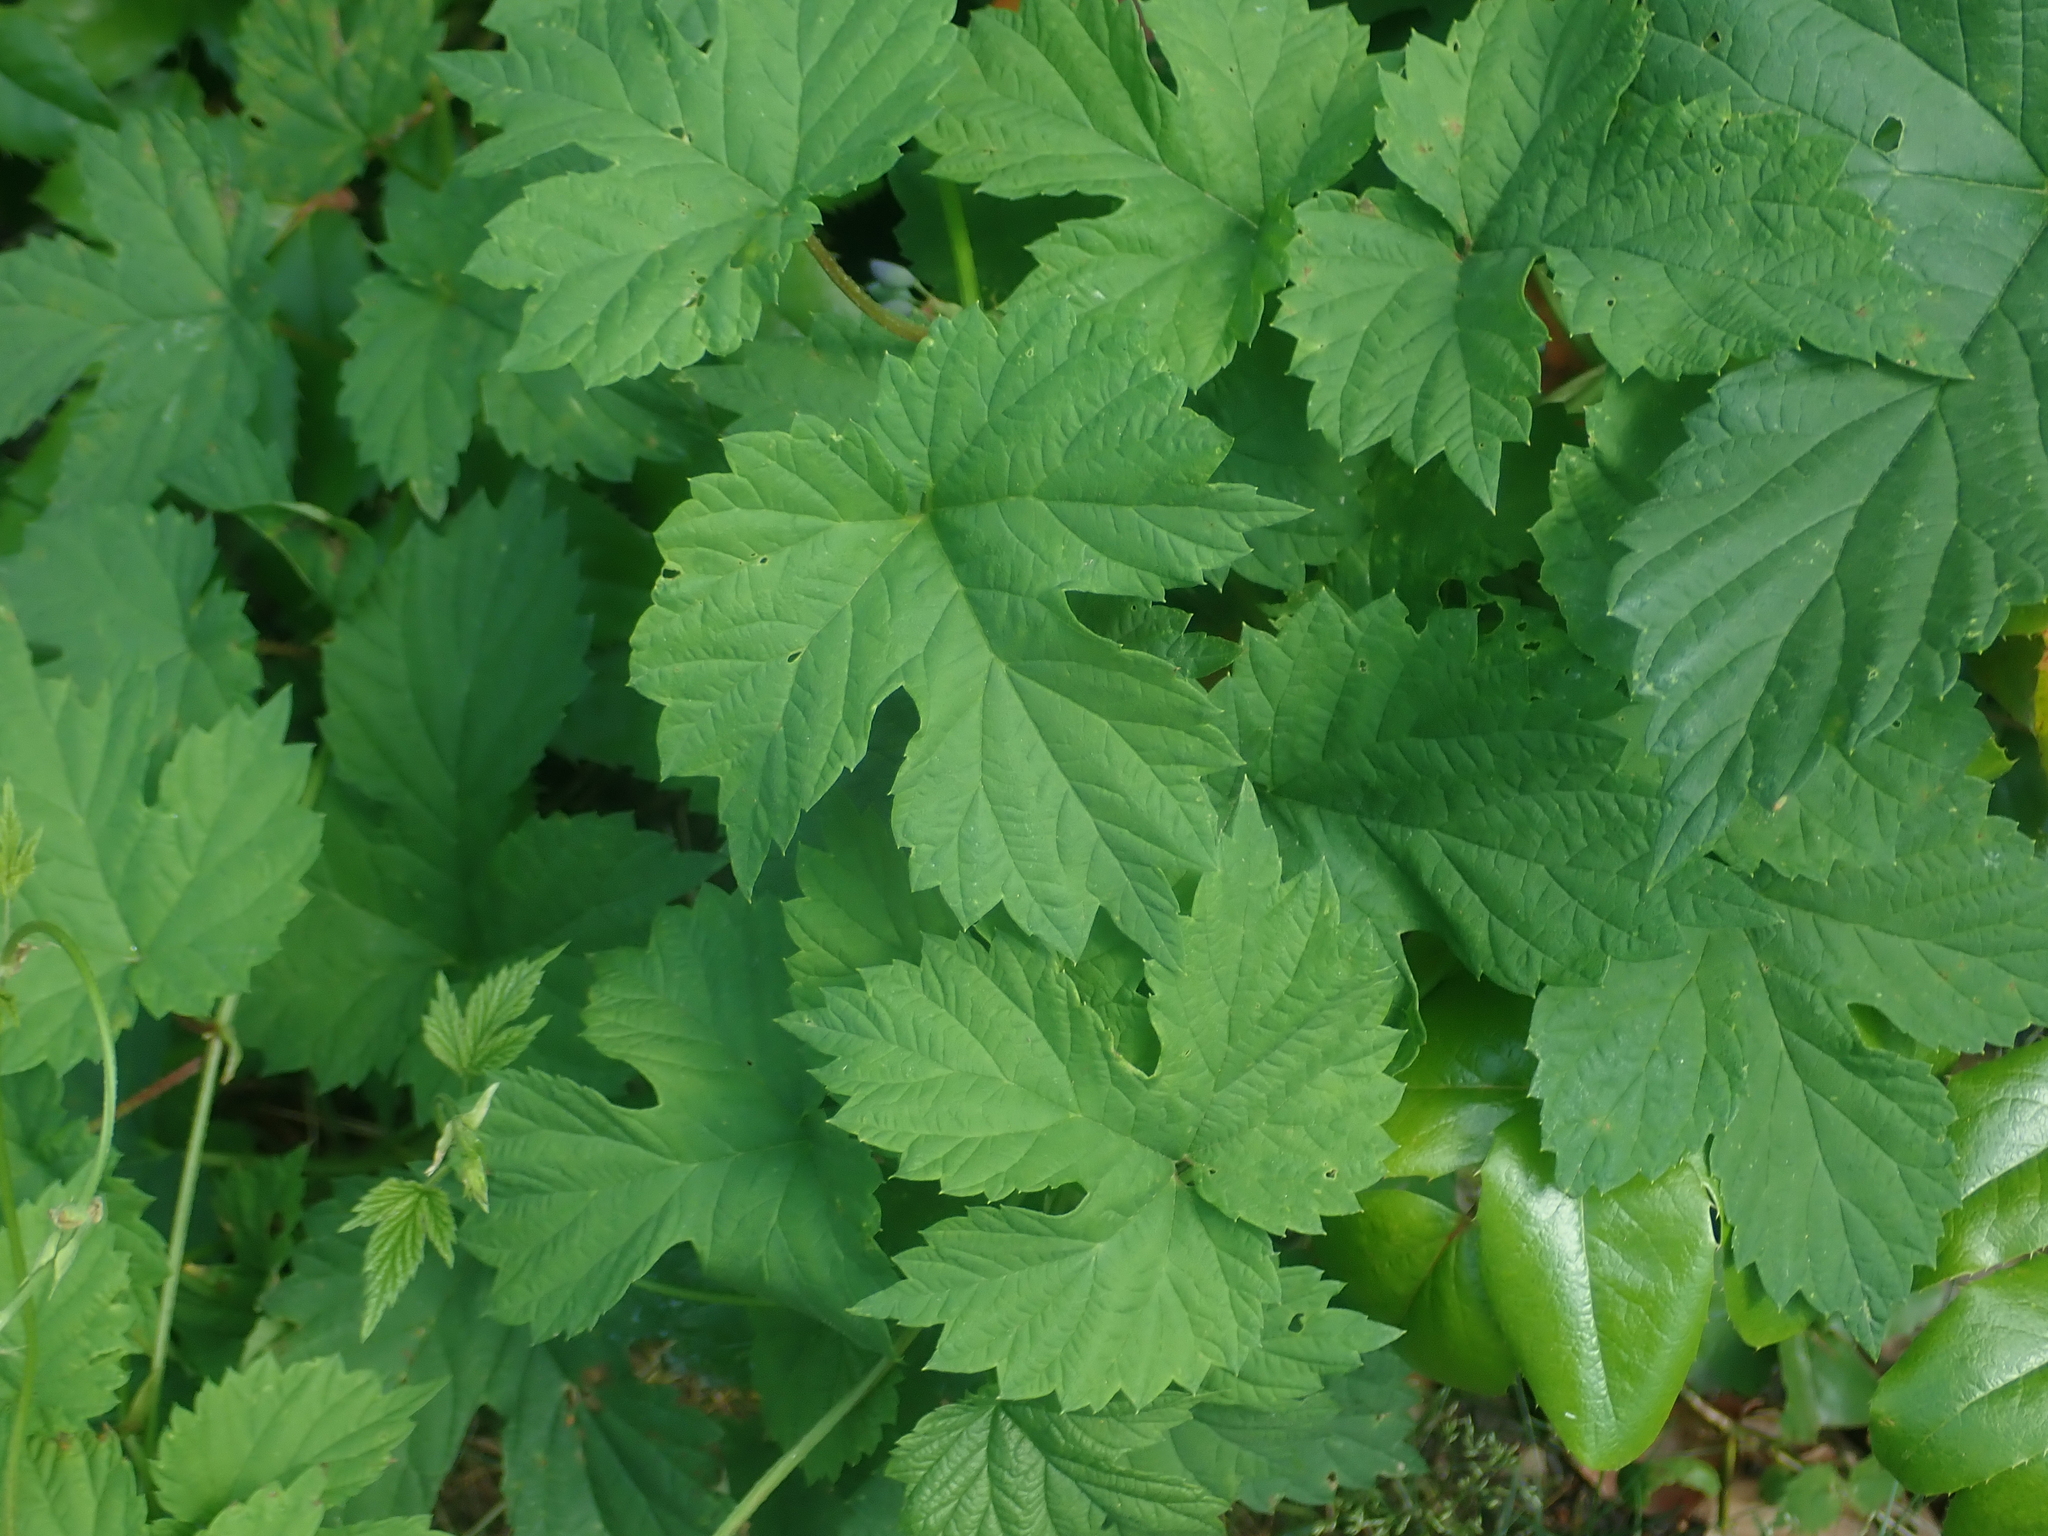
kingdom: Plantae
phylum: Tracheophyta
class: Magnoliopsida
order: Rosales
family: Cannabaceae
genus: Humulus
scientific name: Humulus lupulus
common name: Hop
